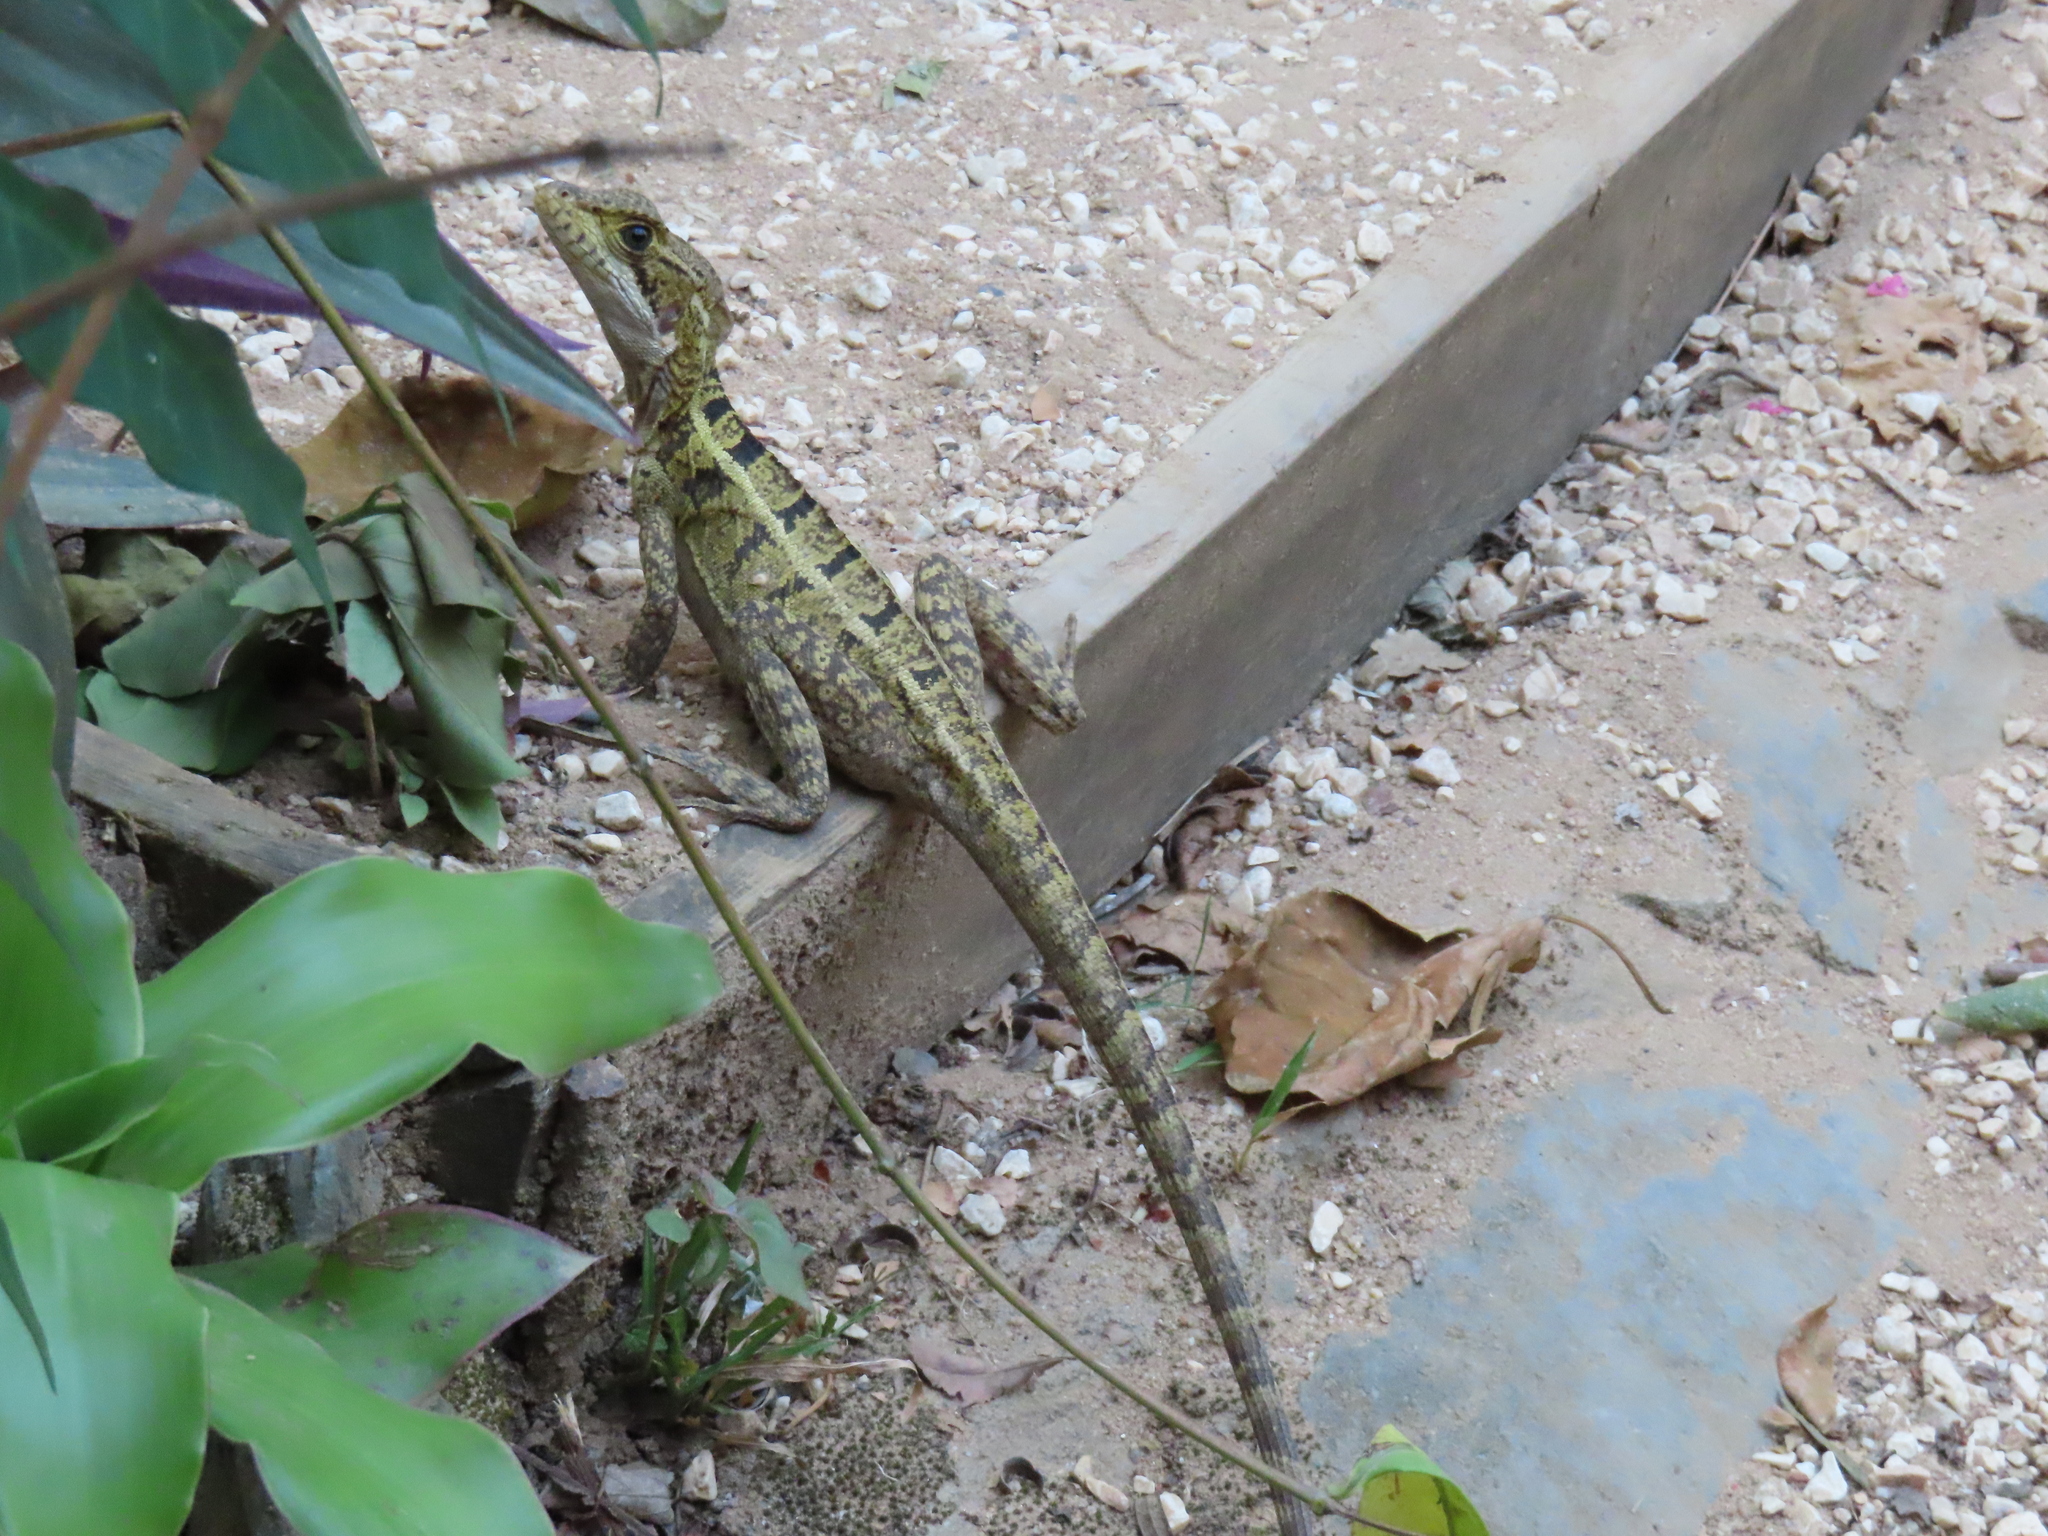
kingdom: Animalia
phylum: Chordata
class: Squamata
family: Corytophanidae
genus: Basiliscus
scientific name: Basiliscus vittatus
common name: Brown basilisk
